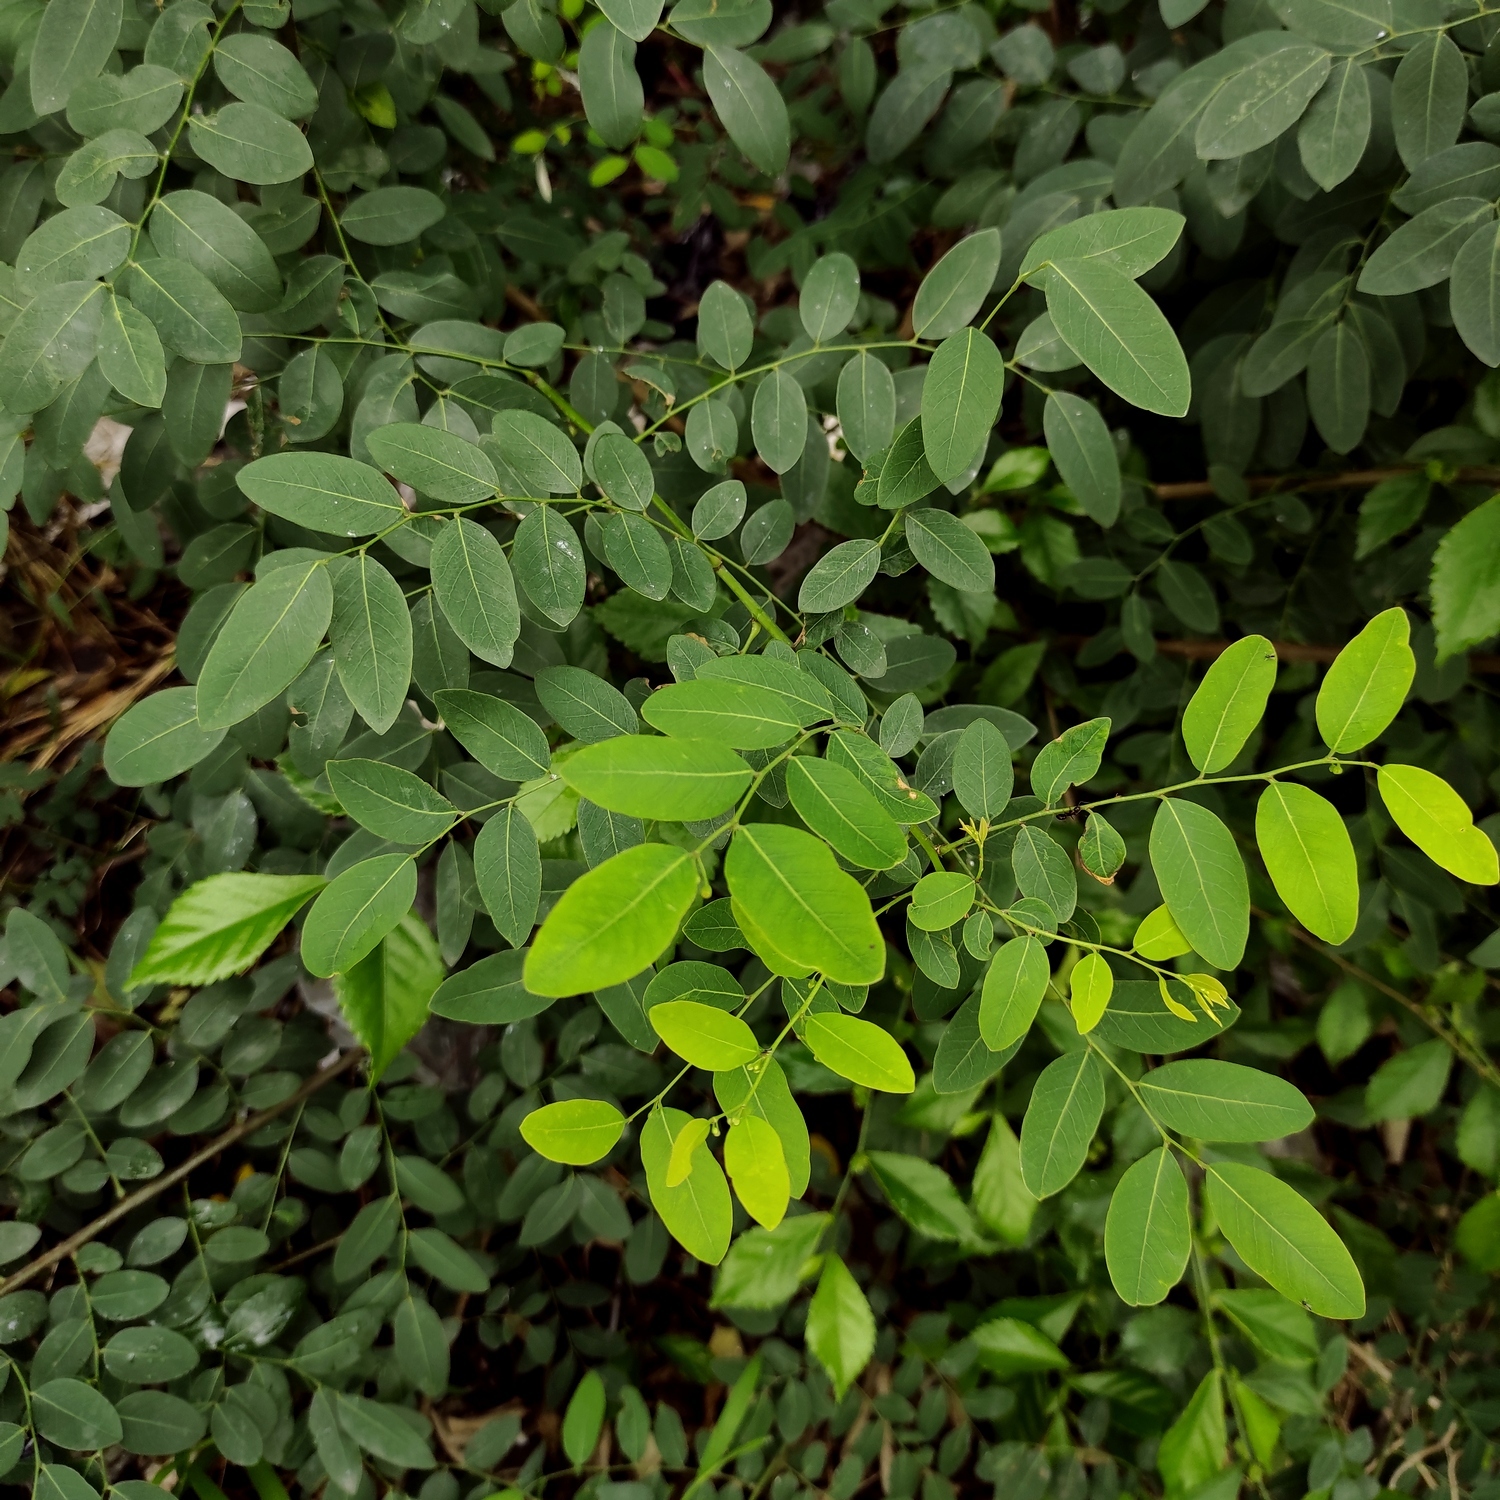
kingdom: Plantae
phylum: Tracheophyta
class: Magnoliopsida
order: Malpighiales
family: Phyllanthaceae
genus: Phyllanthus
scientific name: Phyllanthus reticulatus
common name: Potato bush
